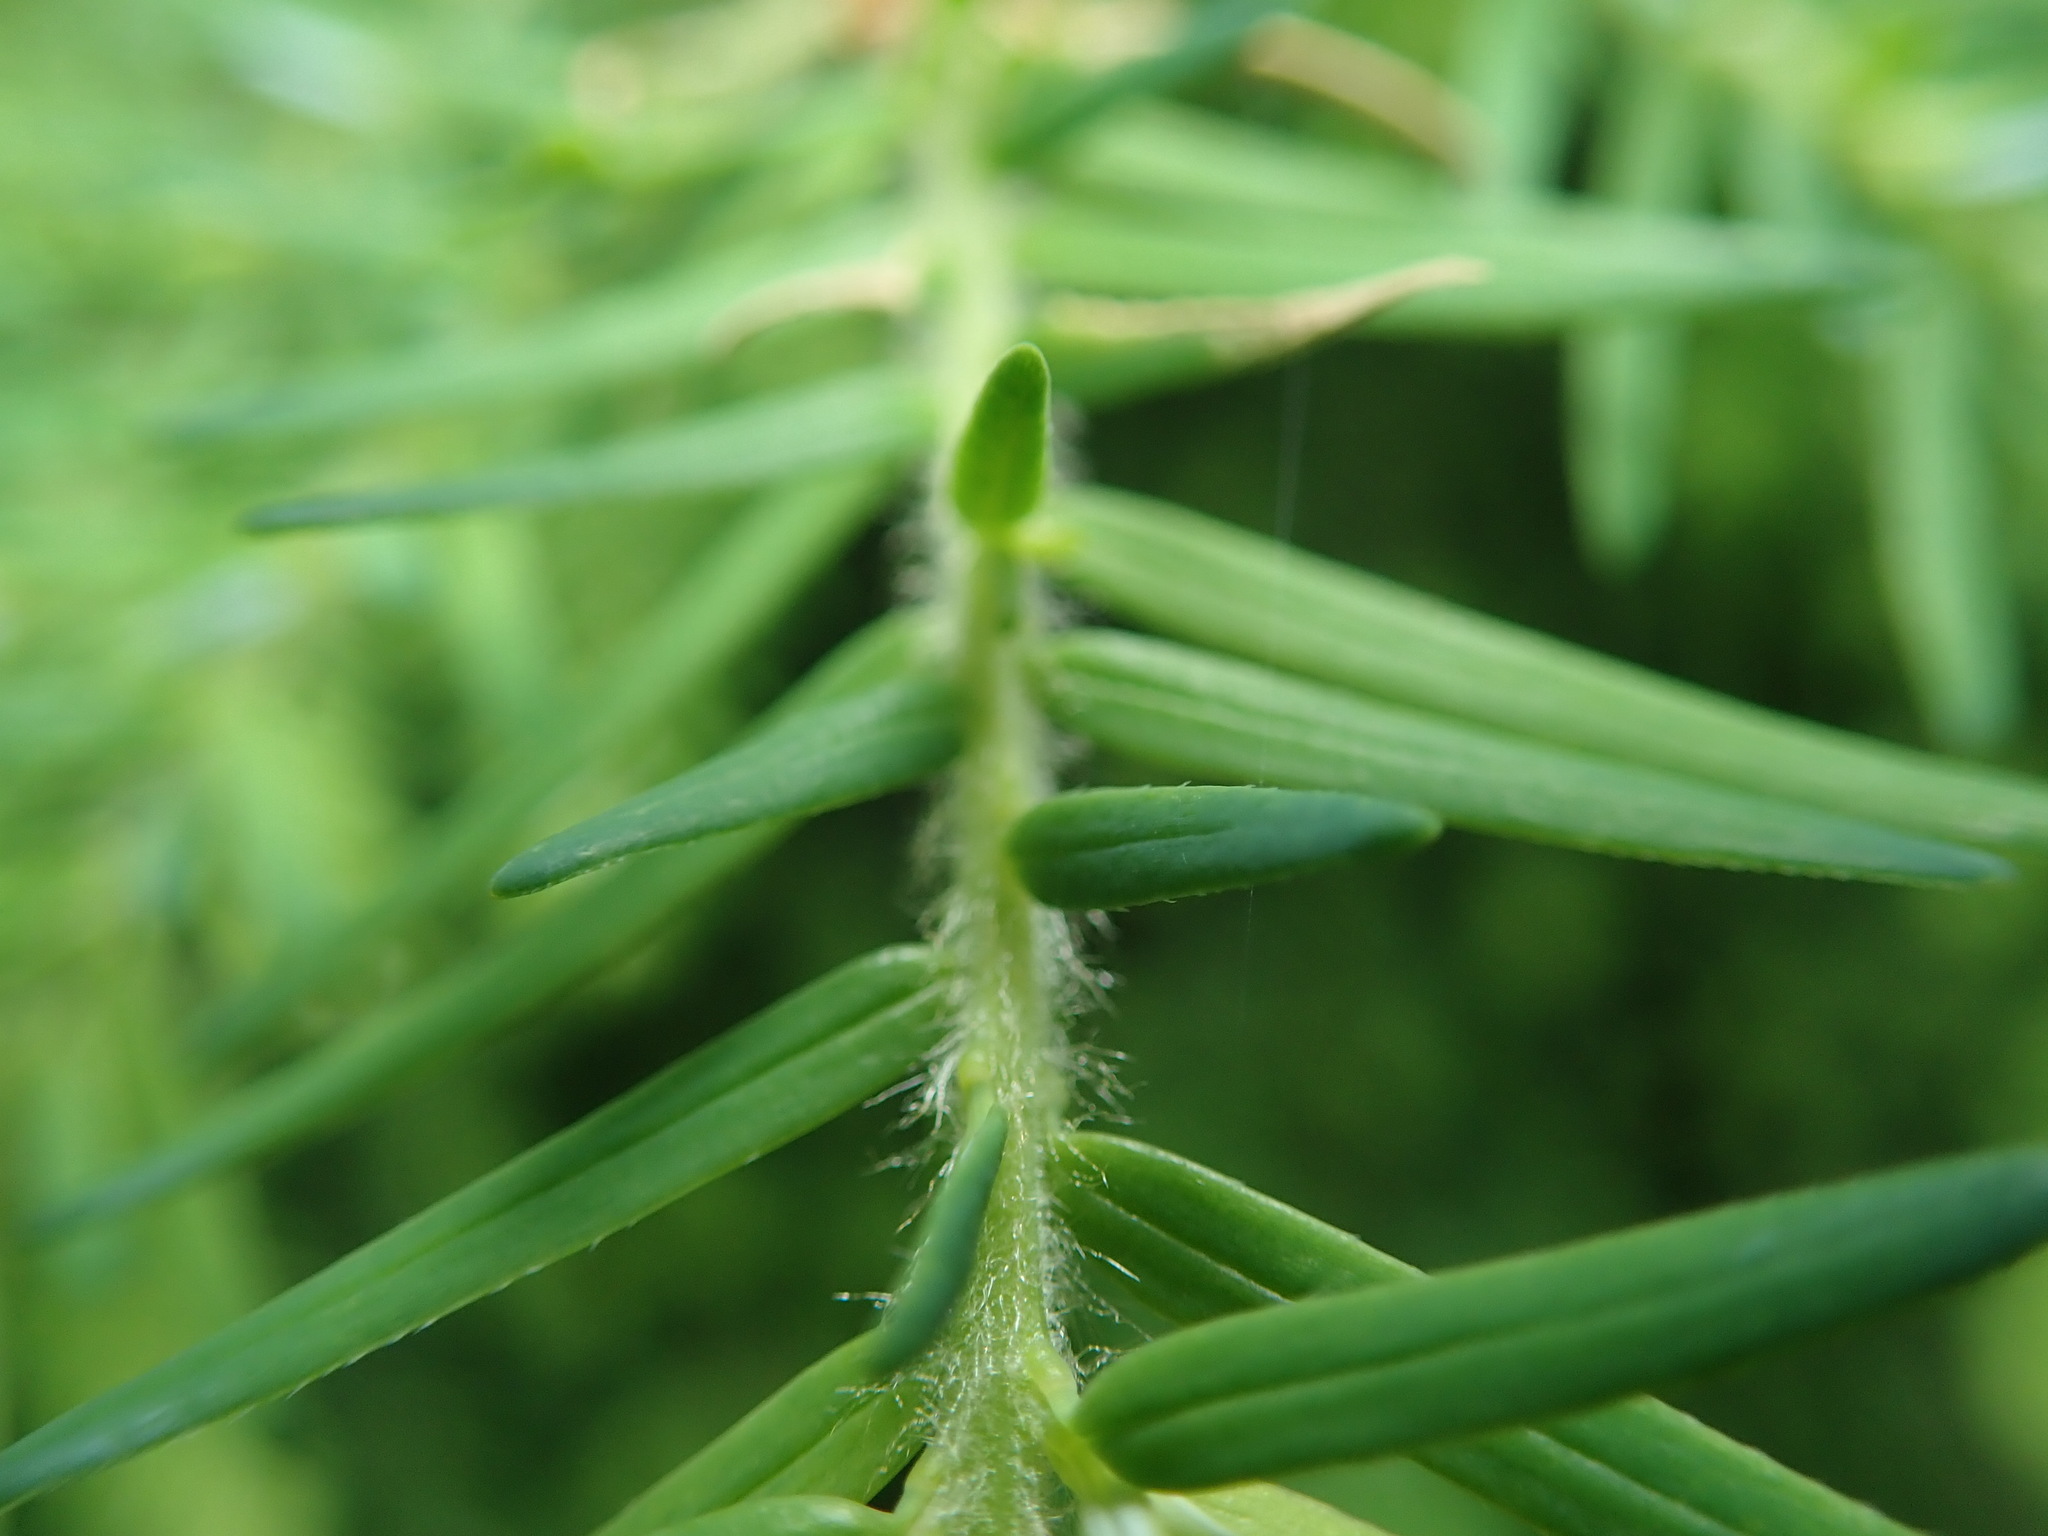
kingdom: Plantae
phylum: Tracheophyta
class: Pinopsida
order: Pinales
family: Pinaceae
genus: Tsuga
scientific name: Tsuga heterophylla
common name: Western hemlock
